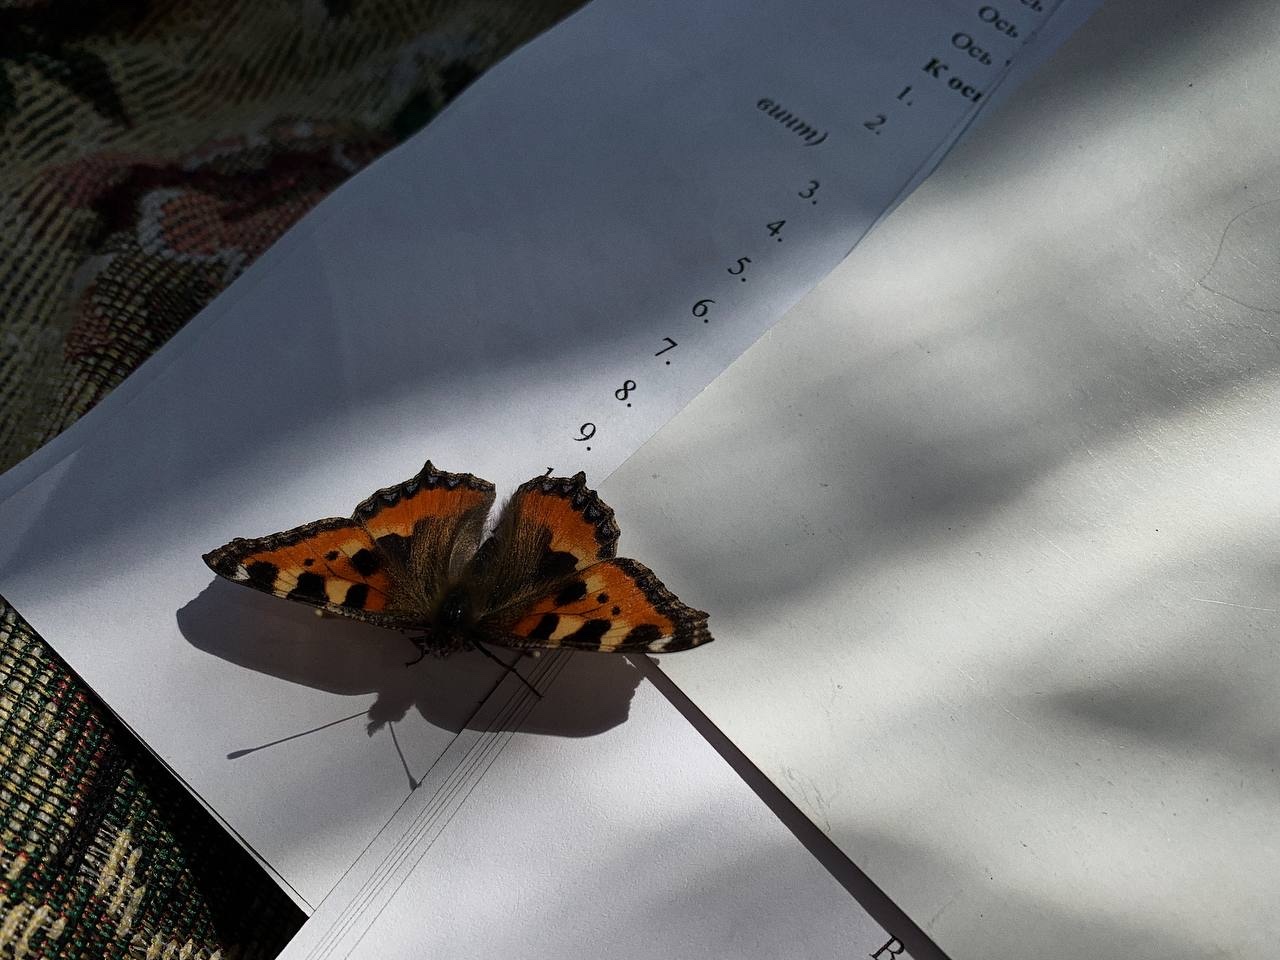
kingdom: Animalia
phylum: Arthropoda
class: Insecta
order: Lepidoptera
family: Nymphalidae
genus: Aglais
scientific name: Aglais urticae
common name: Small tortoiseshell
